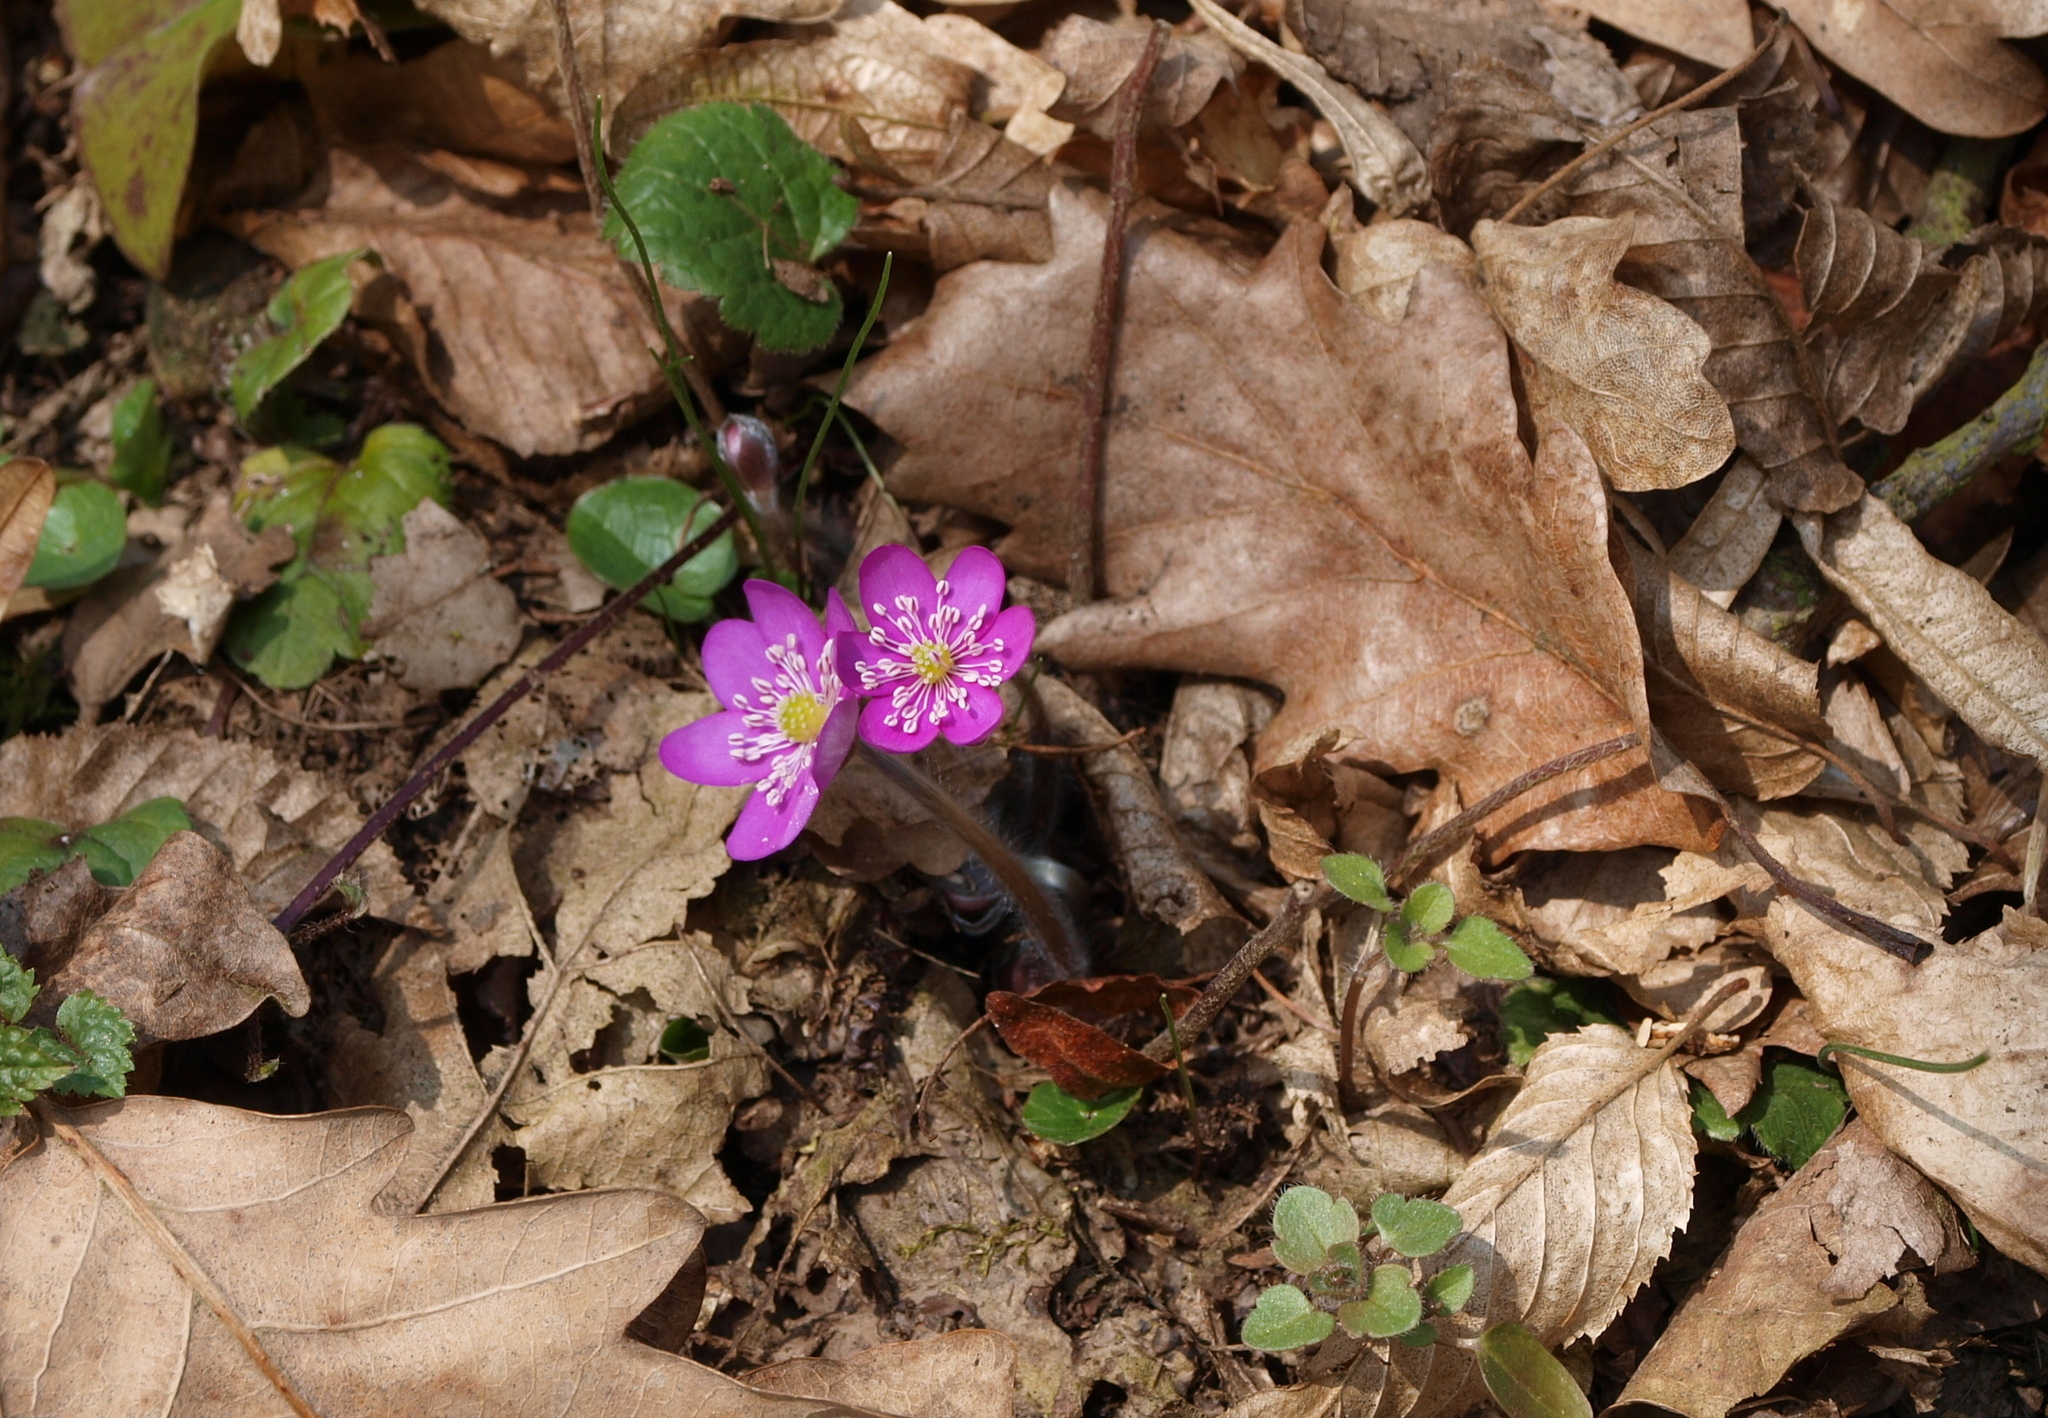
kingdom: Plantae
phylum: Tracheophyta
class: Magnoliopsida
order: Ranunculales
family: Ranunculaceae
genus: Hepatica
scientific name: Hepatica nobilis
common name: Liverleaf
